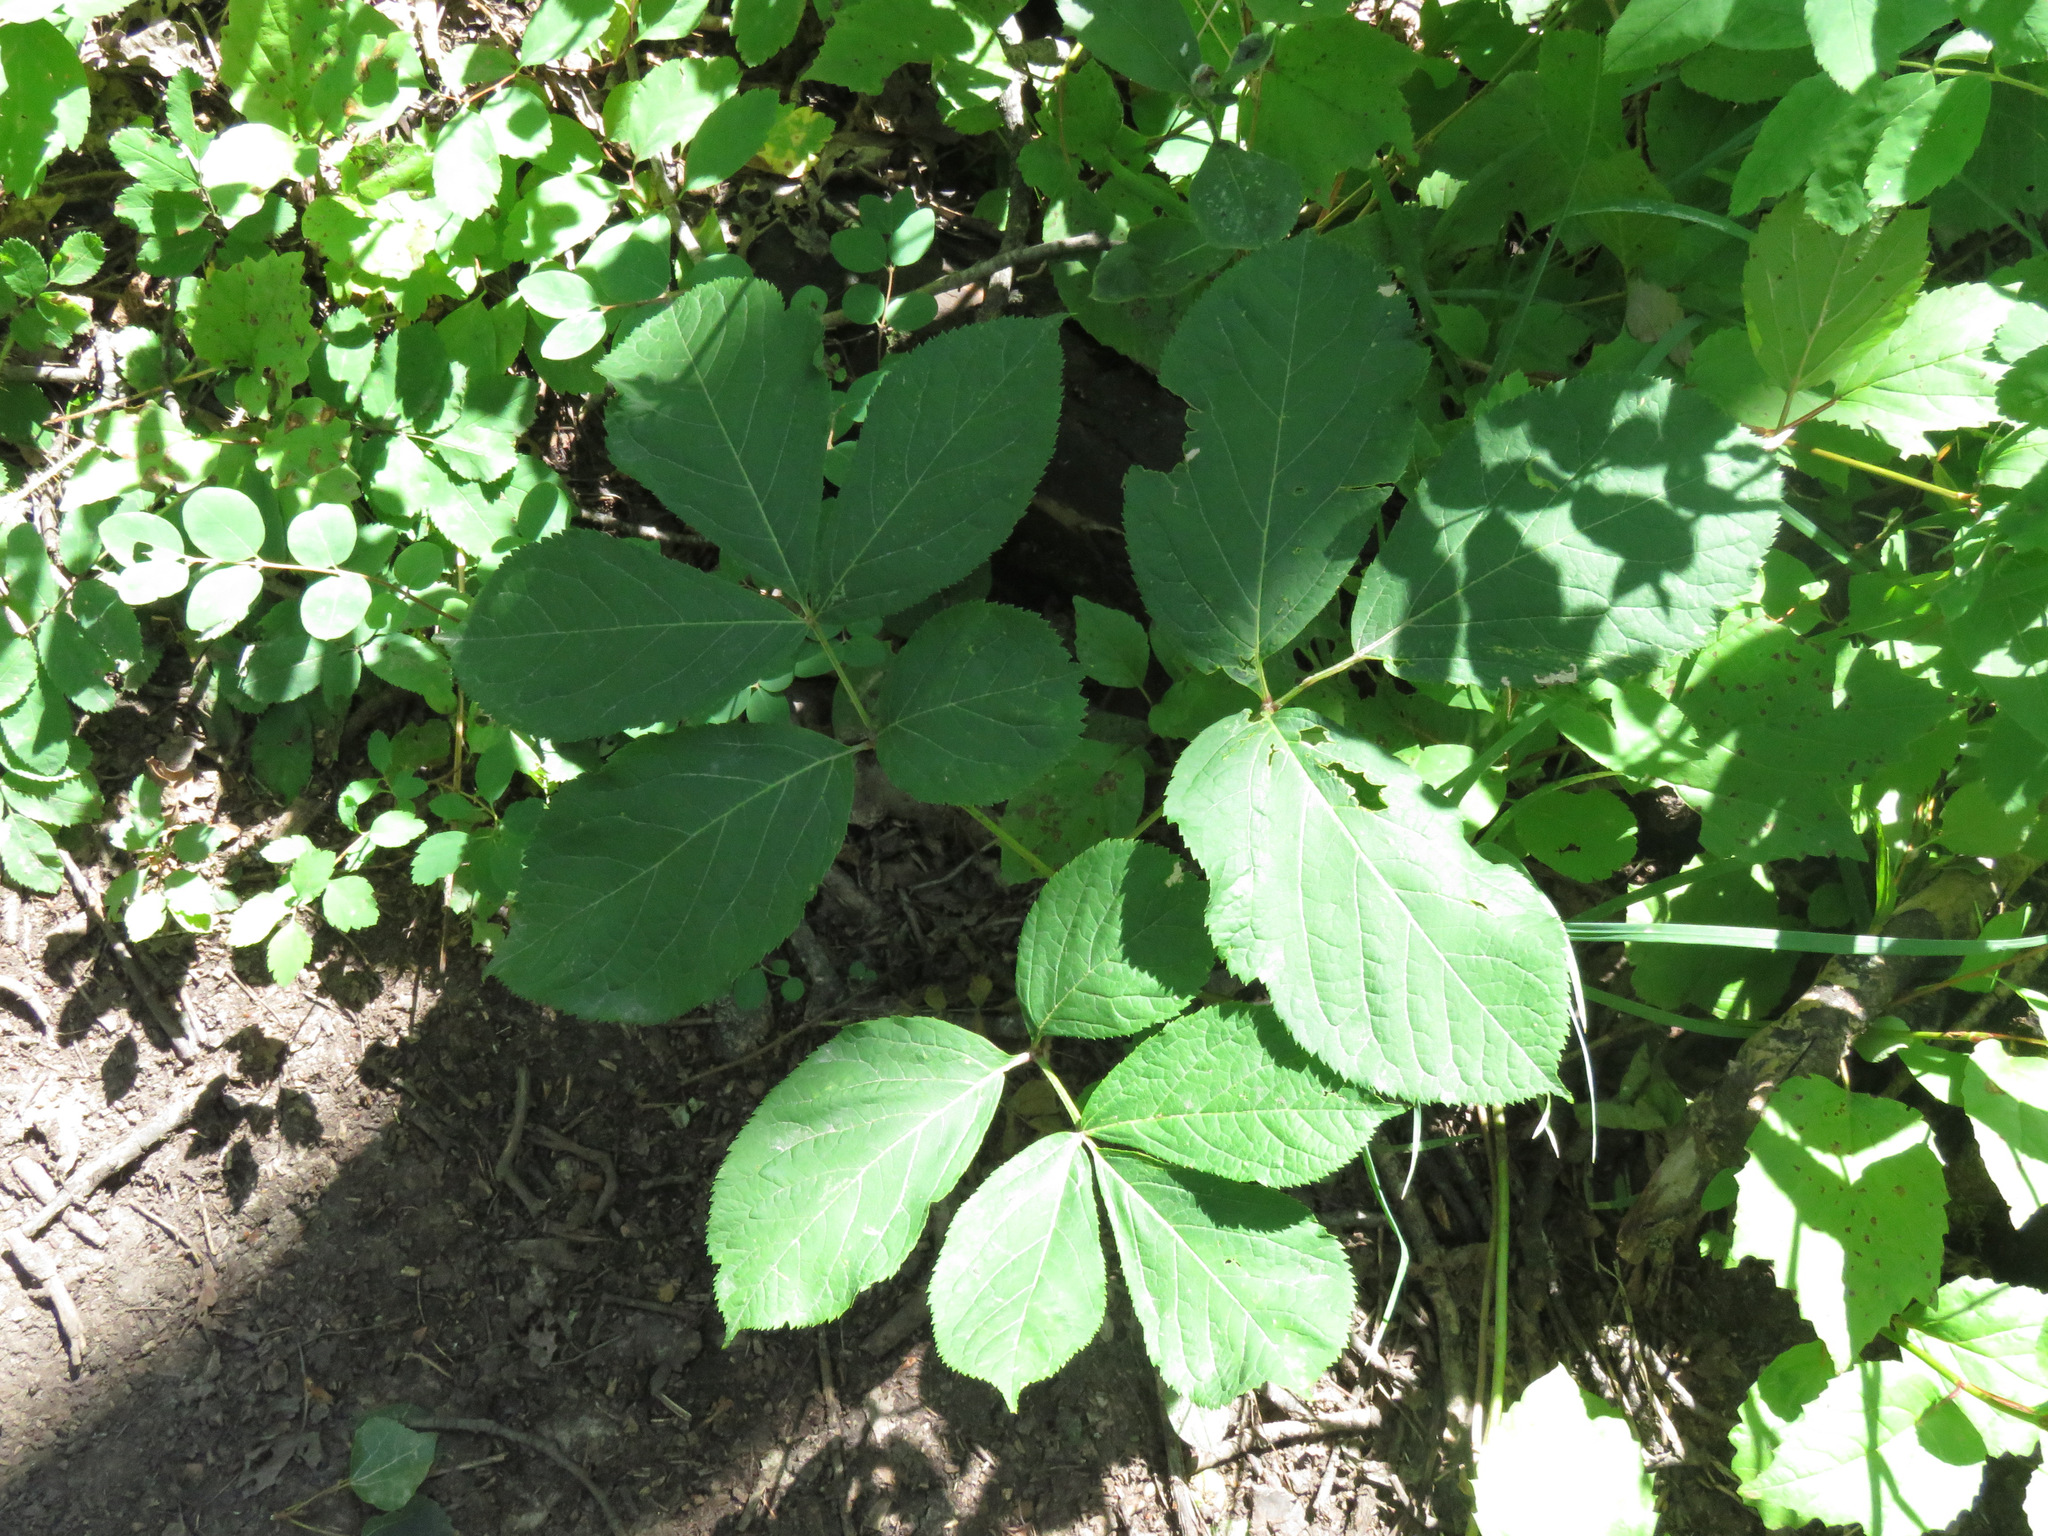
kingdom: Plantae
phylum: Tracheophyta
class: Magnoliopsida
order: Apiales
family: Araliaceae
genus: Aralia
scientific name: Aralia nudicaulis
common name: Wild sarsaparilla
